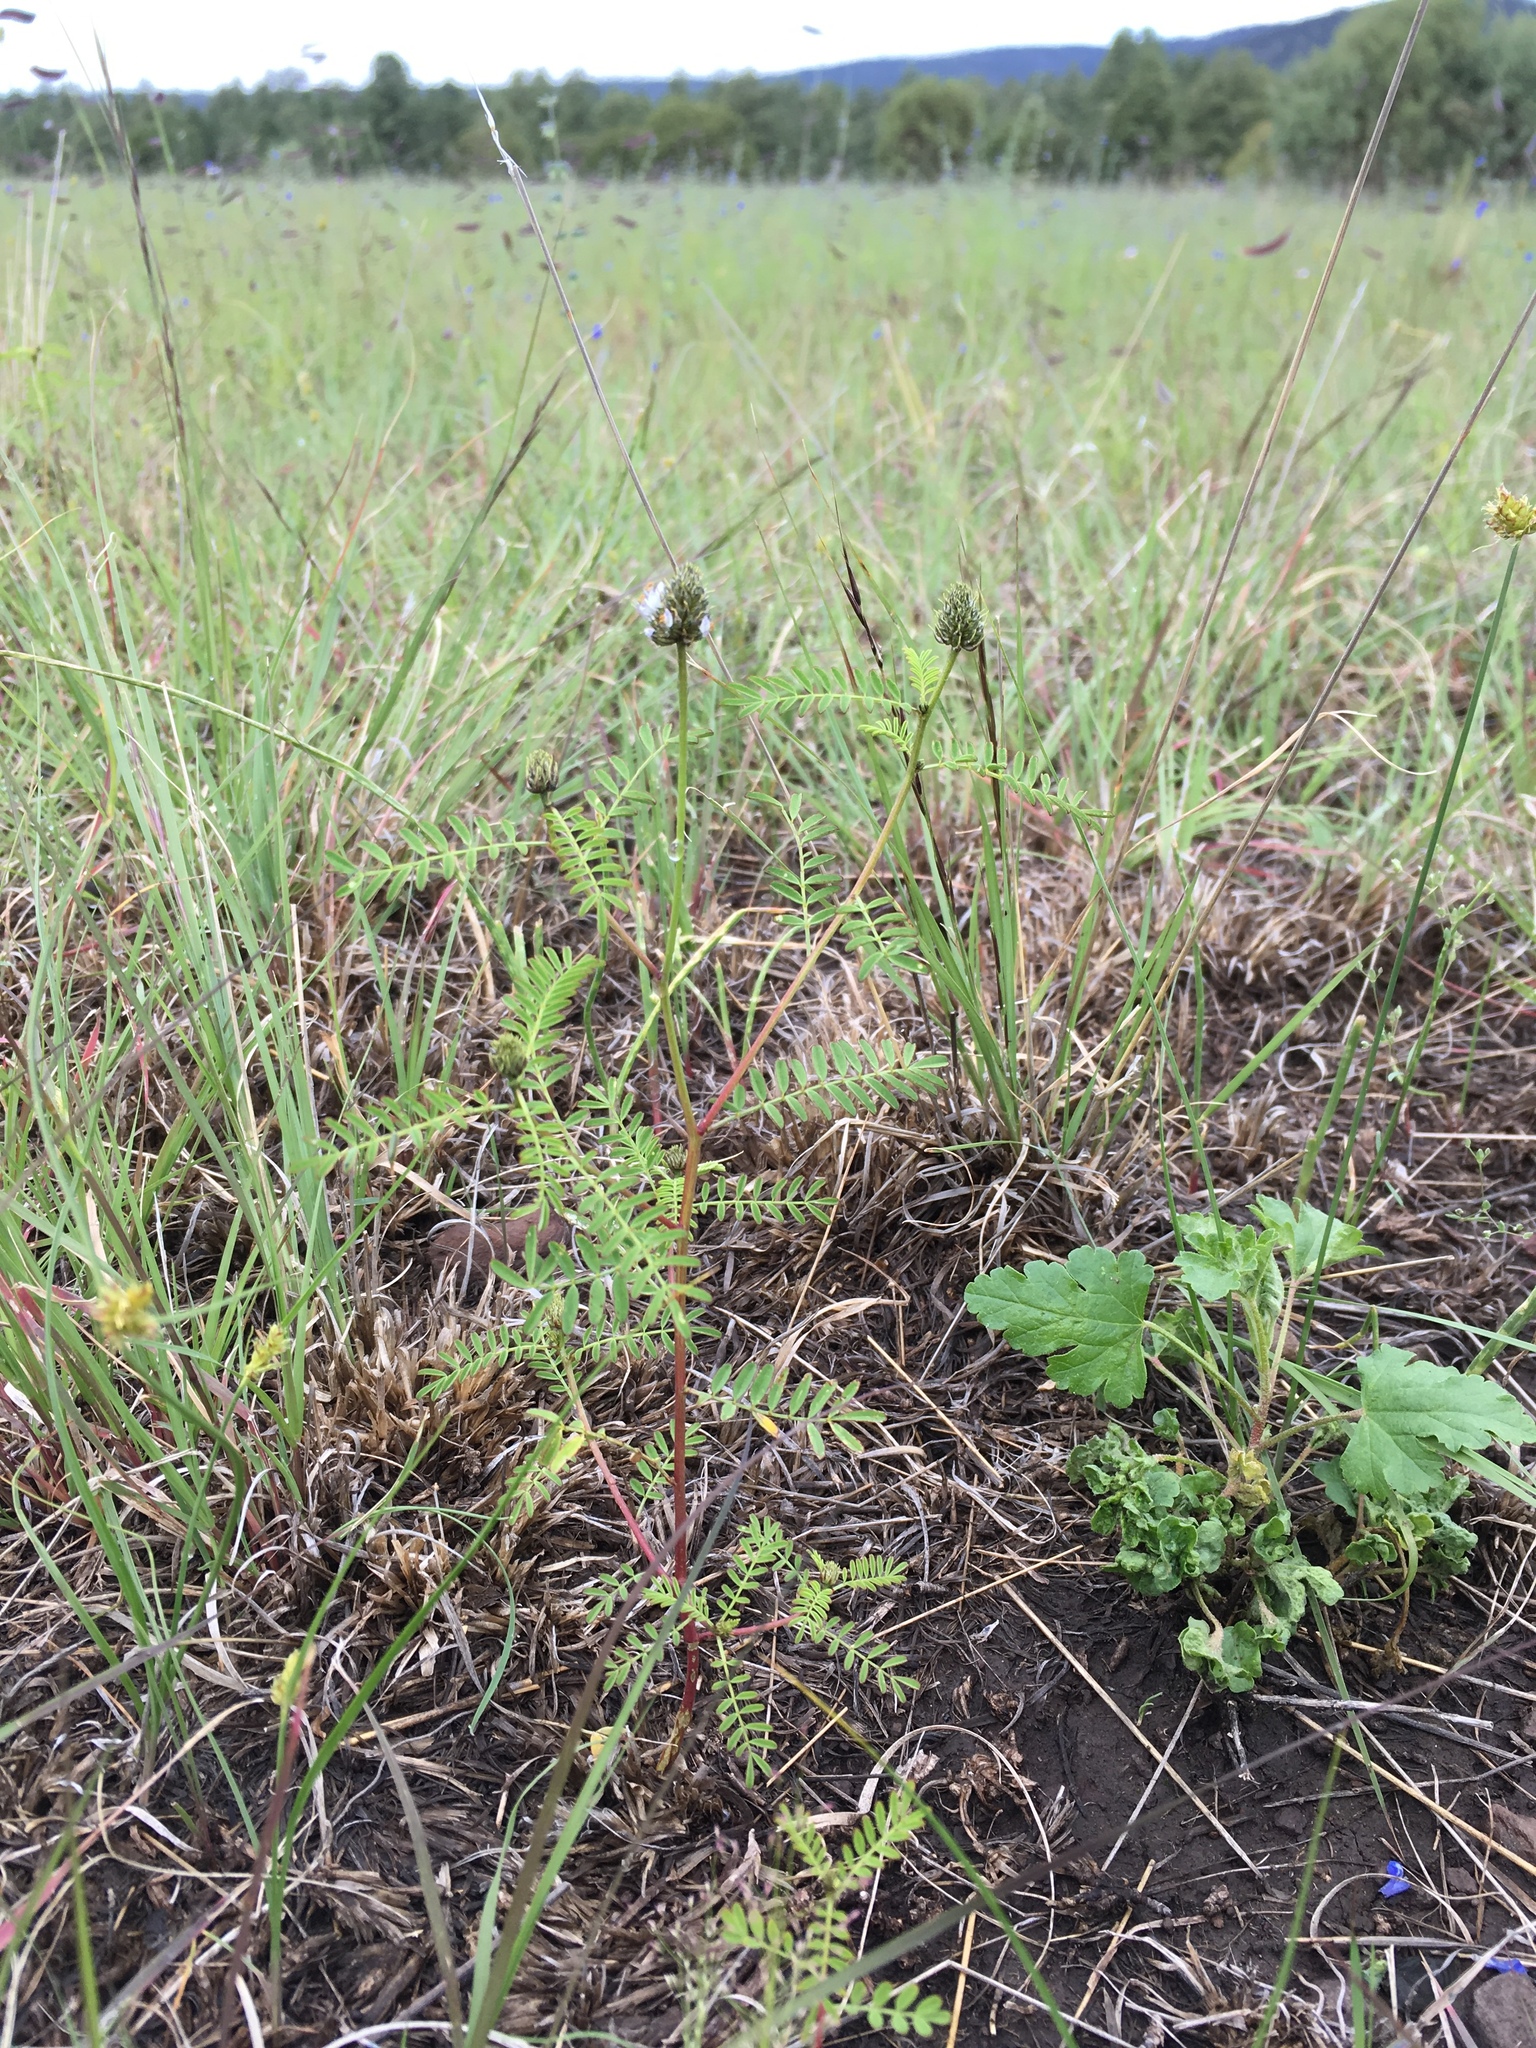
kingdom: Plantae
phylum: Tracheophyta
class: Magnoliopsida
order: Fabales
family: Fabaceae
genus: Dalea
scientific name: Dalea urceolata
